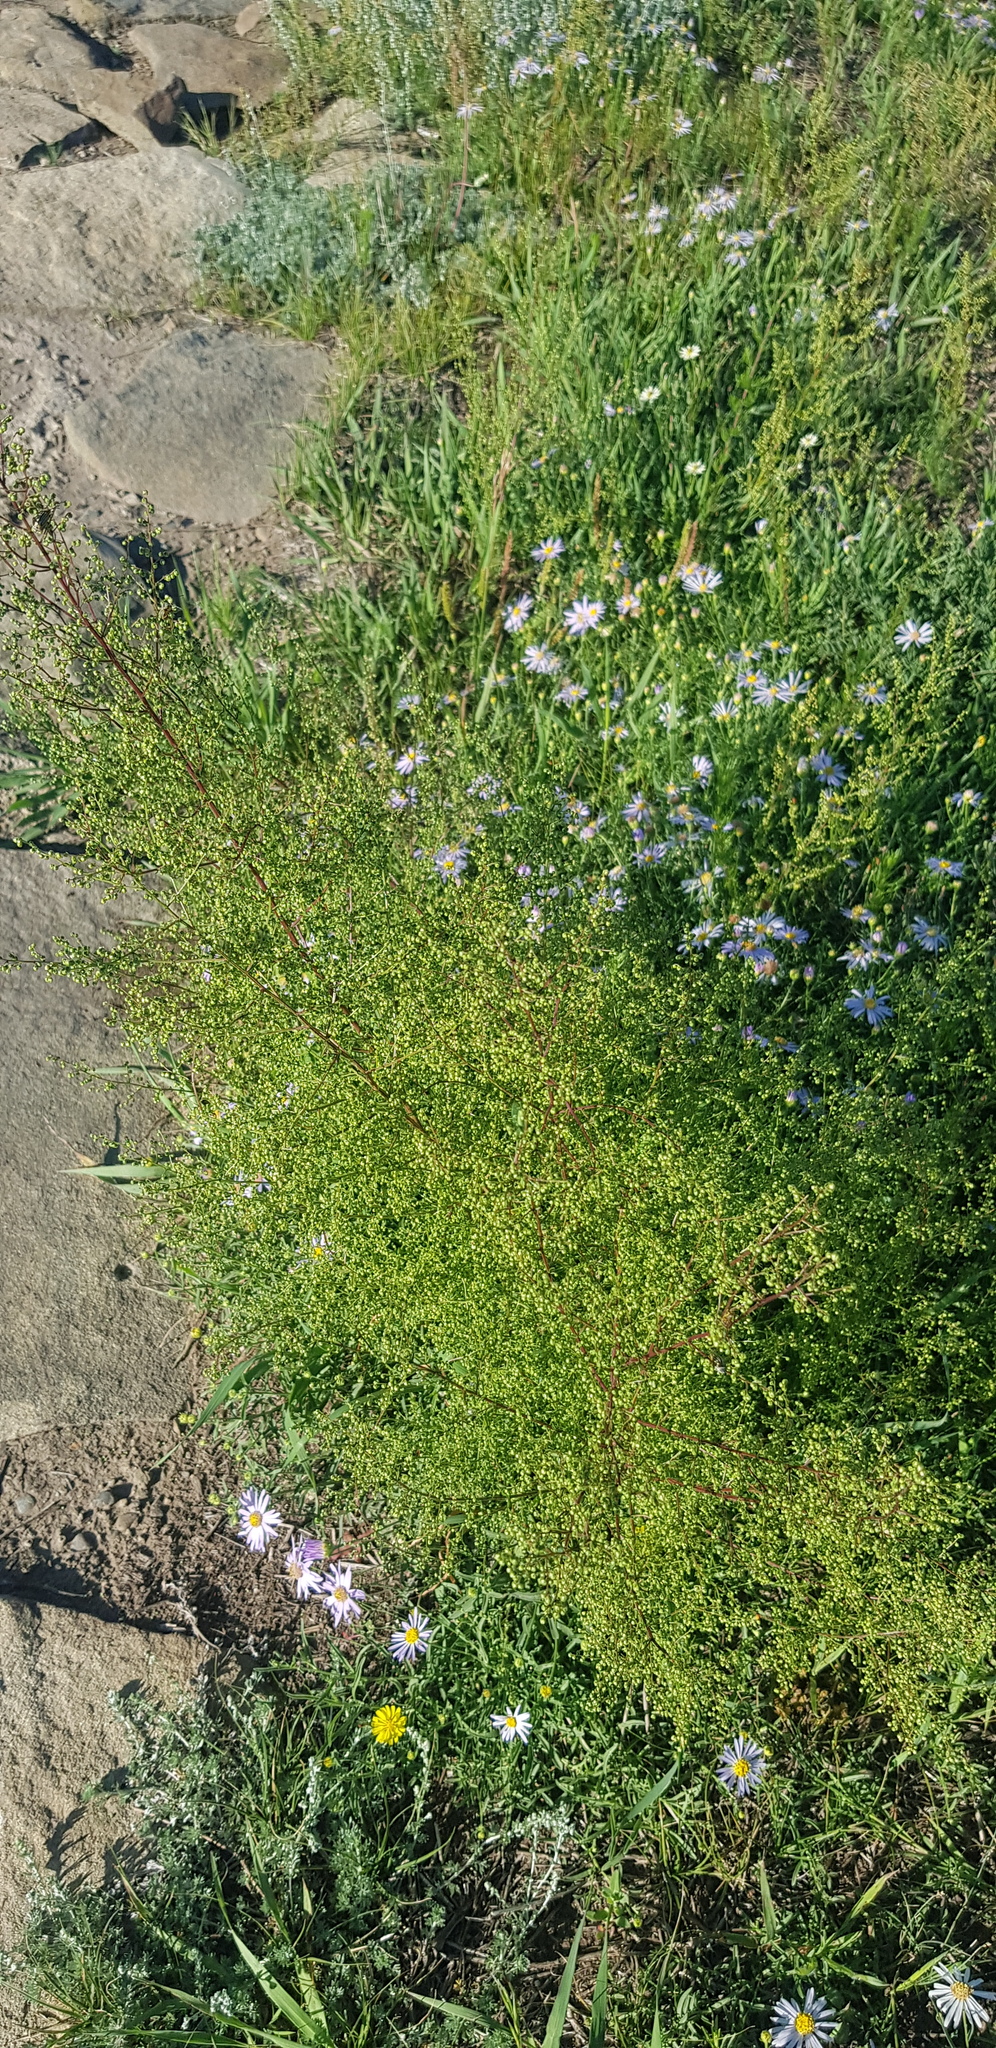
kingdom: Plantae
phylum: Tracheophyta
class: Magnoliopsida
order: Asterales
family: Asteraceae
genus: Artemisia
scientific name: Artemisia scoparia
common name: Redstem wormwood
